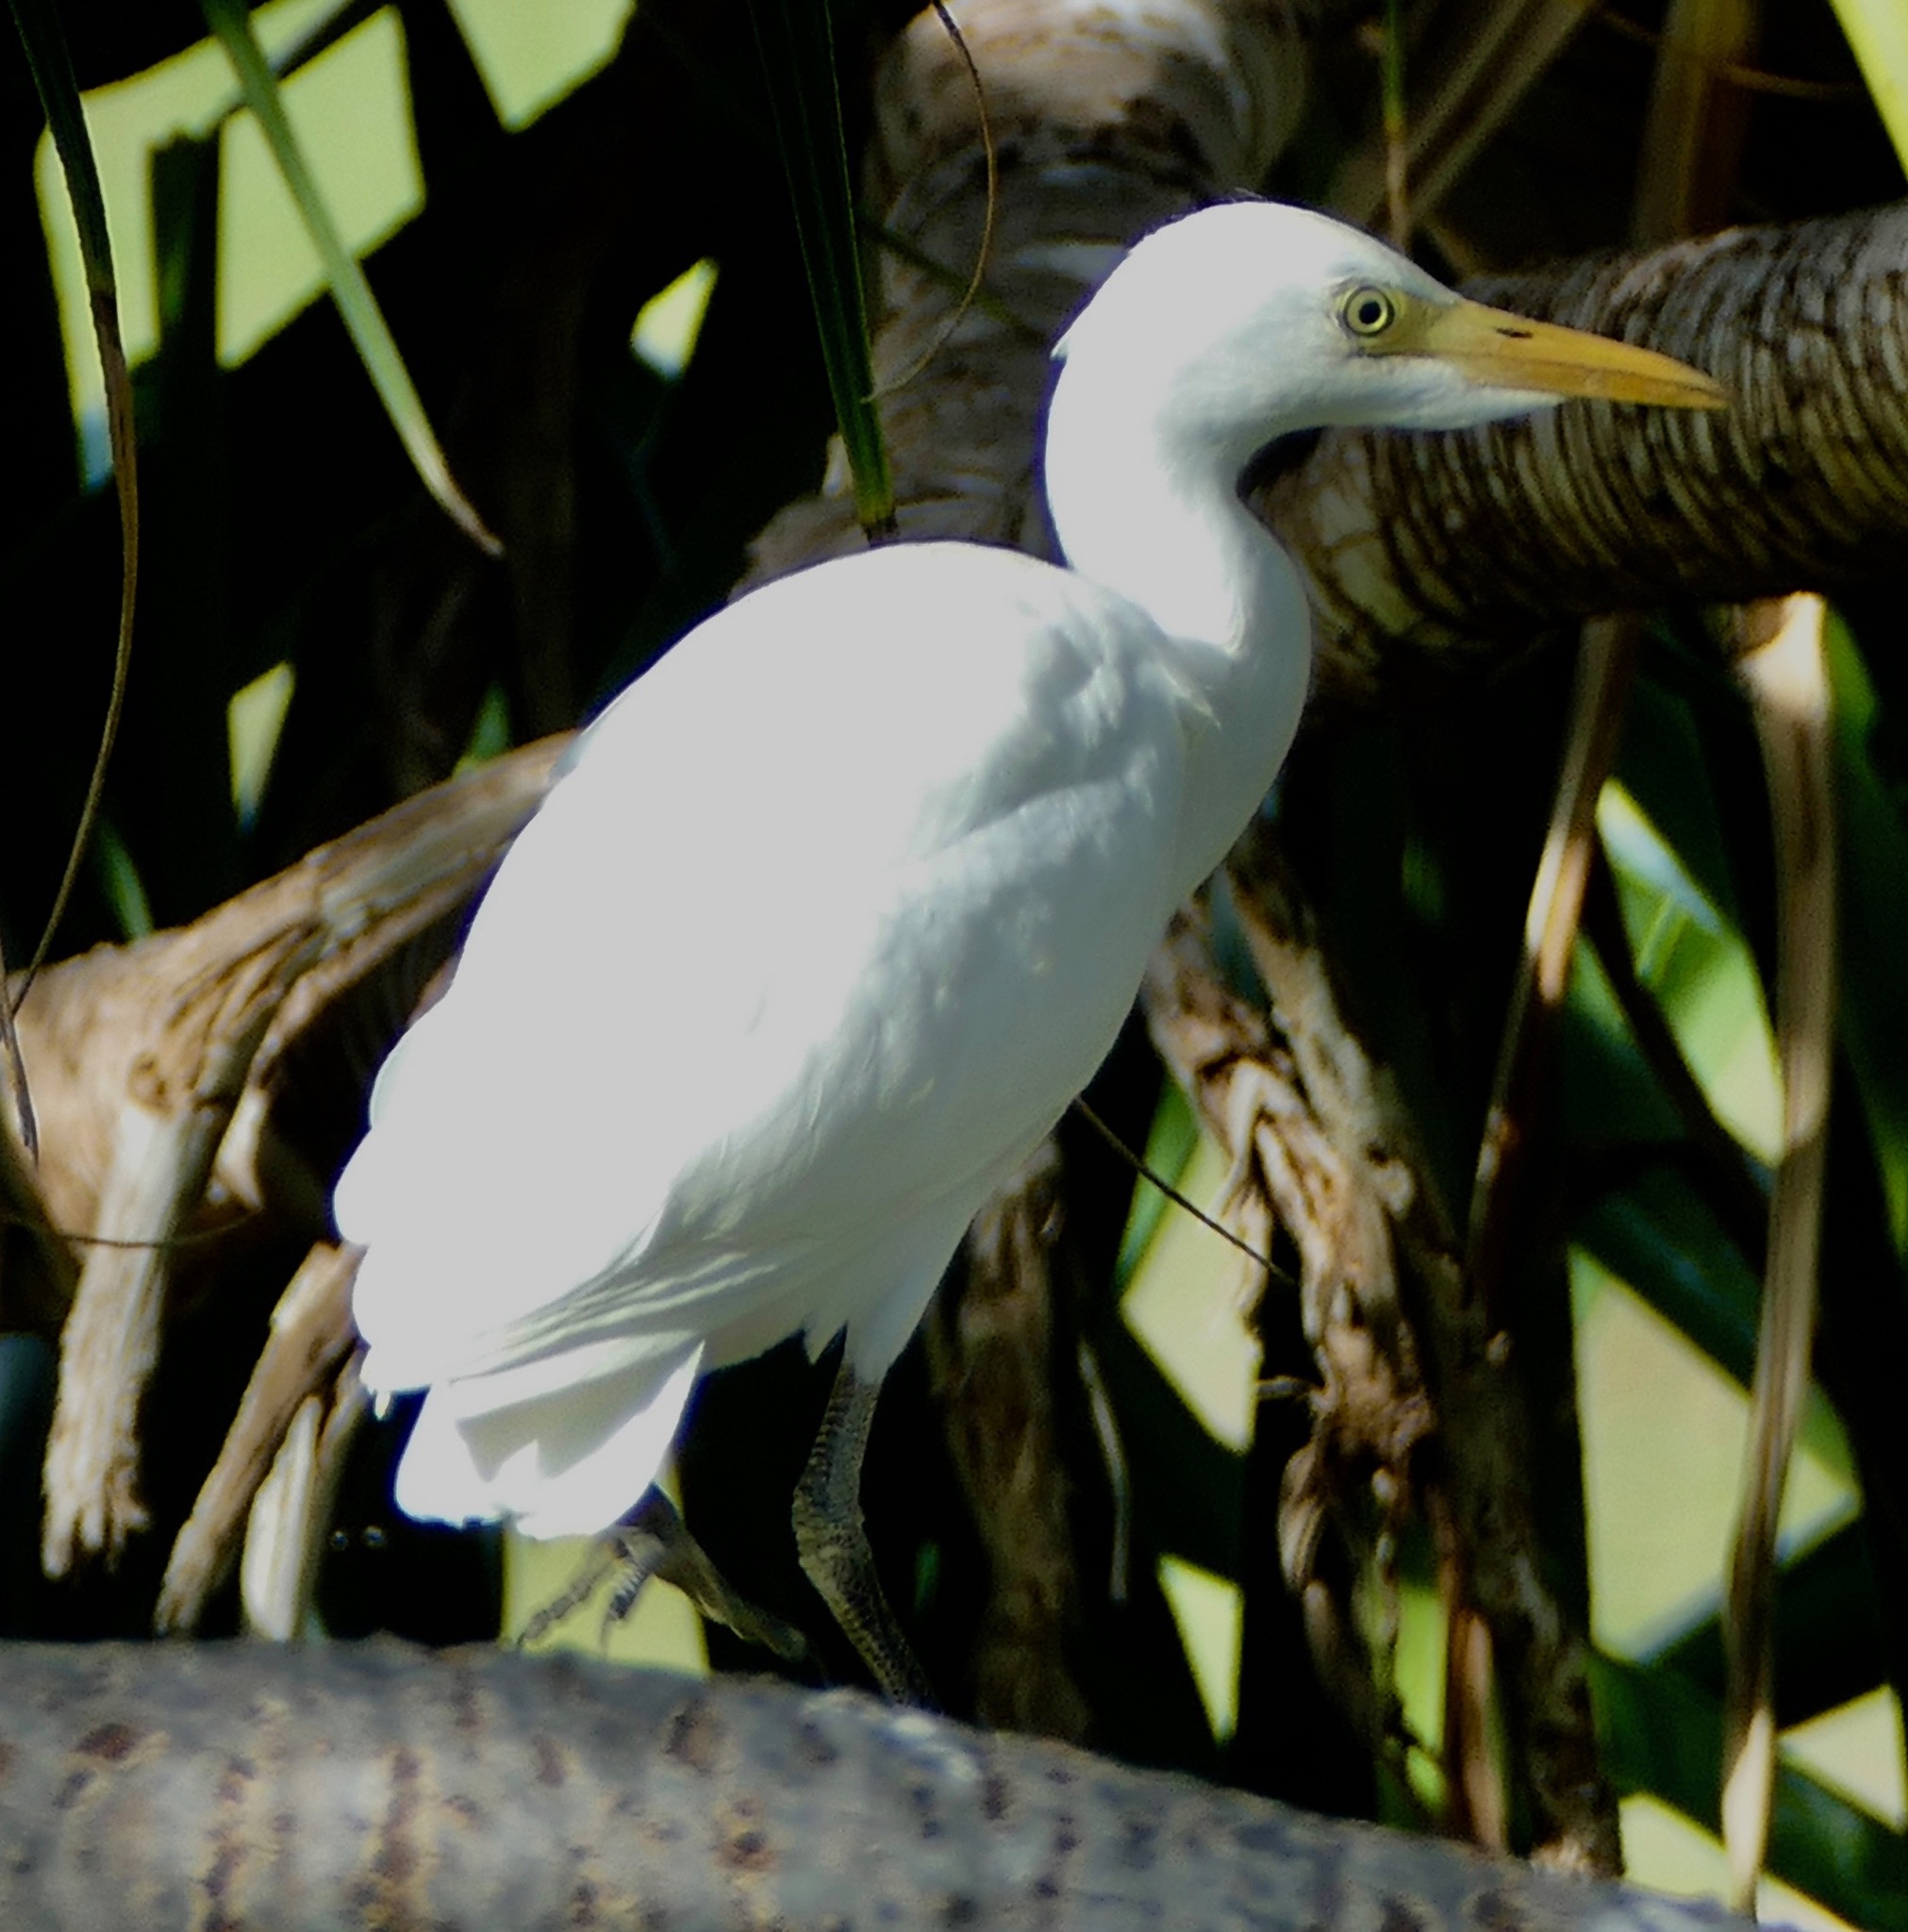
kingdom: Animalia
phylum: Chordata
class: Aves
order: Pelecaniformes
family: Ardeidae
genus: Bubulcus
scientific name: Bubulcus ibis
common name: Cattle egret
